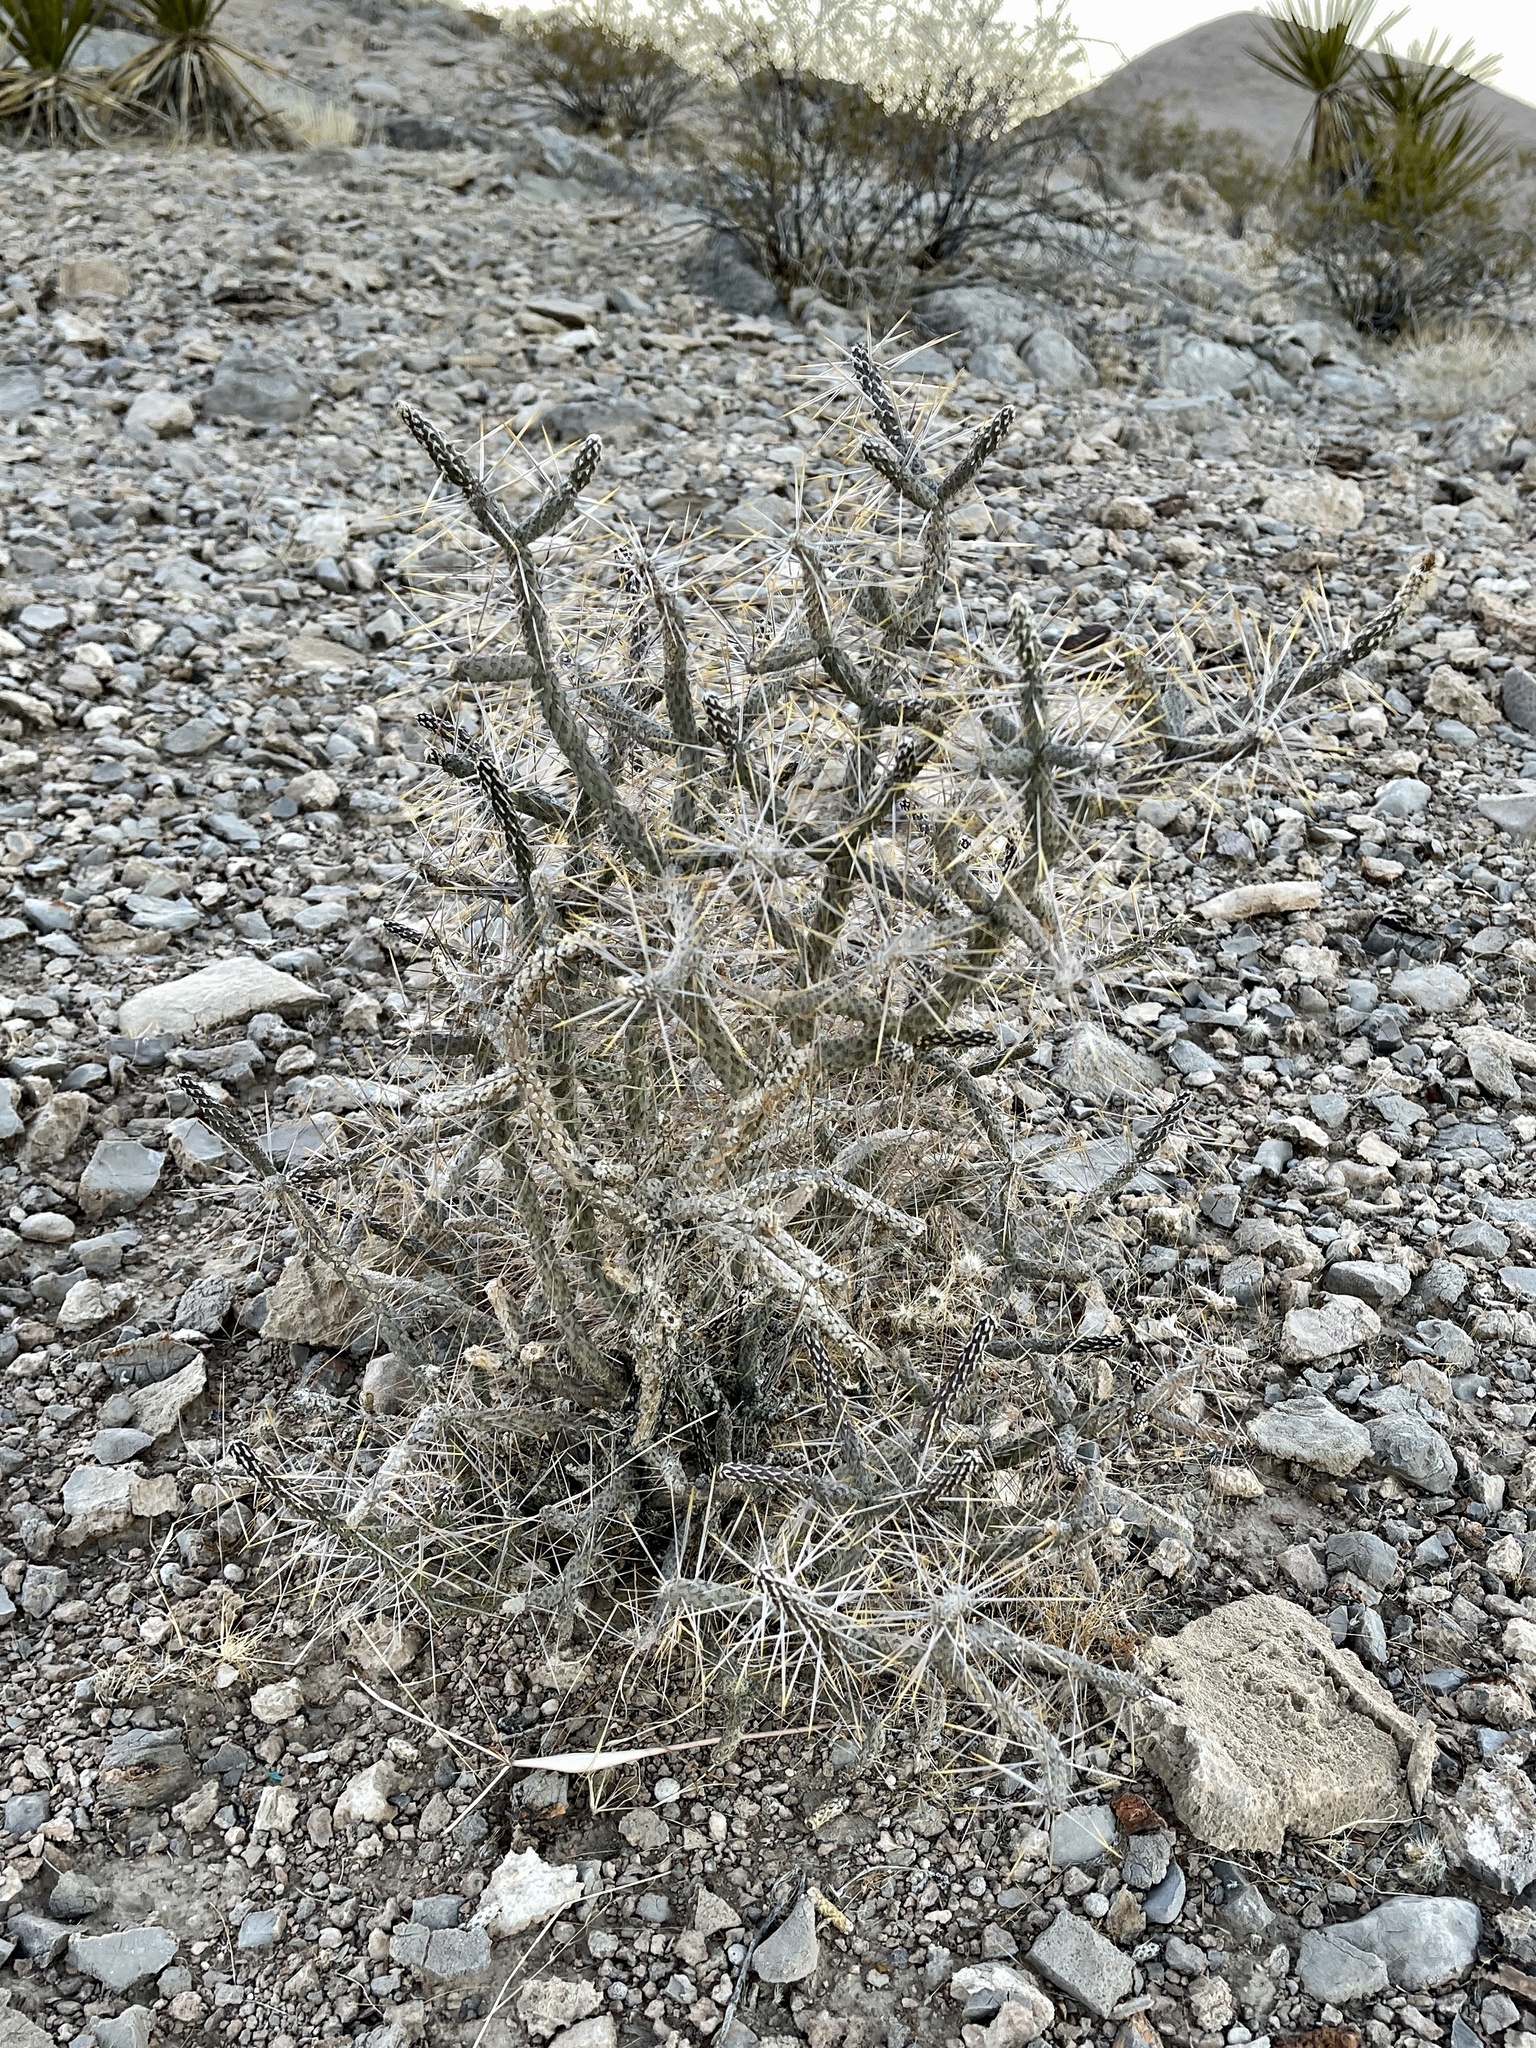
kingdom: Plantae
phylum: Tracheophyta
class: Magnoliopsida
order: Caryophyllales
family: Cactaceae
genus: Cylindropuntia
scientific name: Cylindropuntia ramosissima
